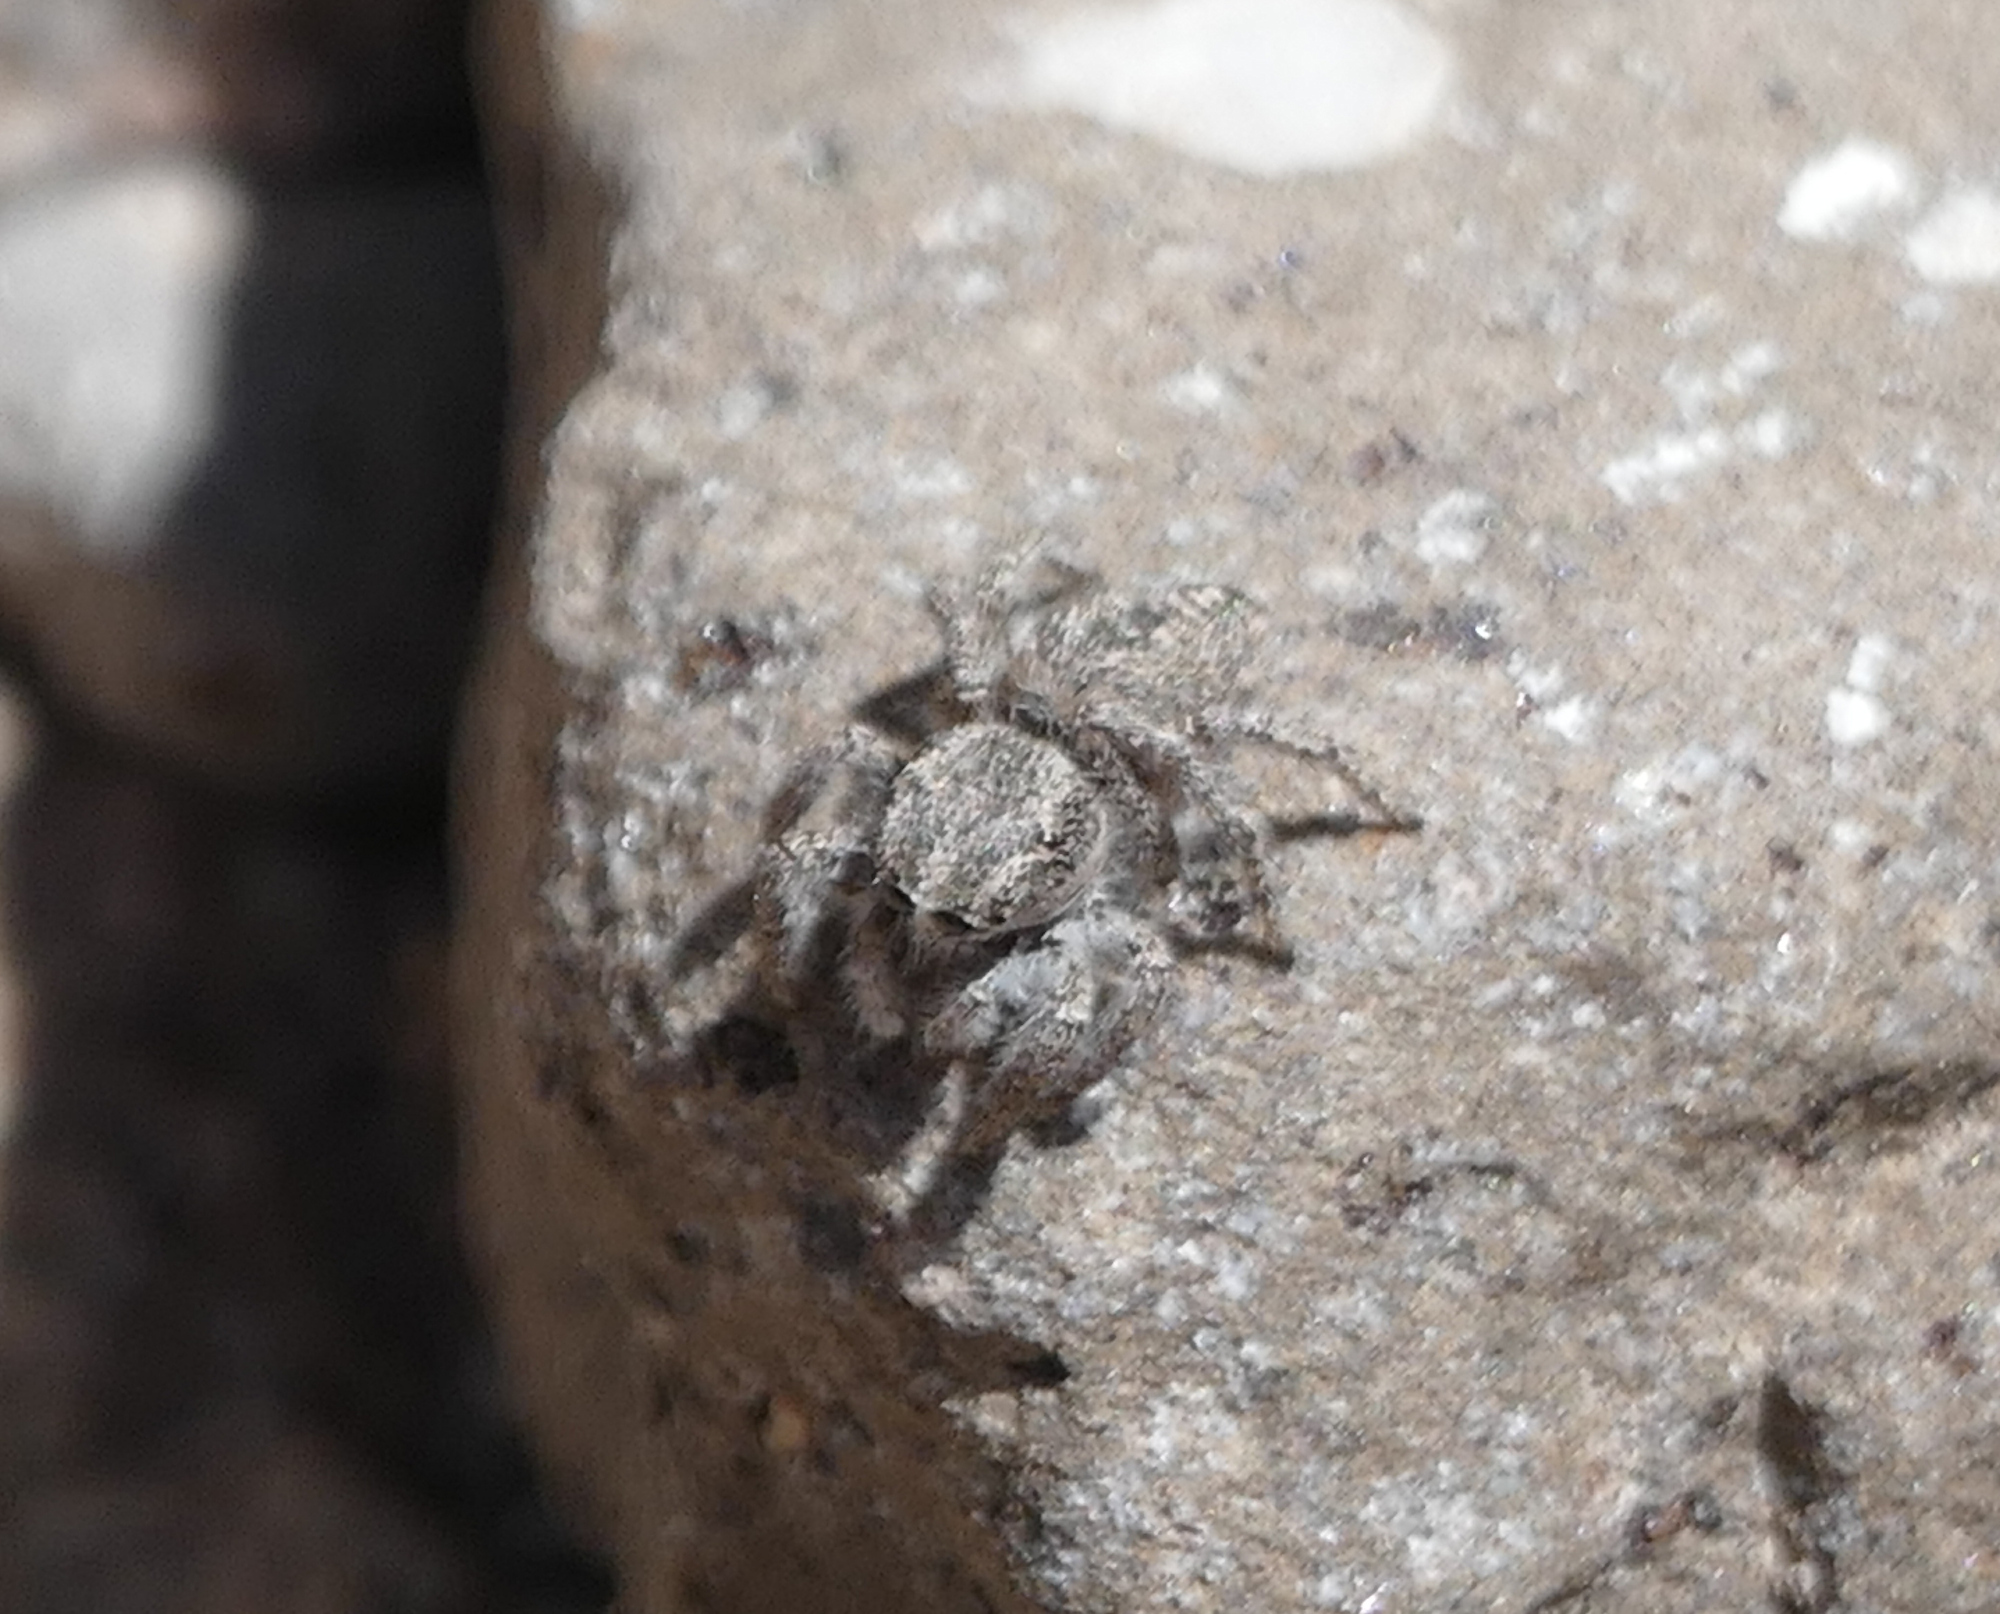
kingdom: Animalia
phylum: Arthropoda
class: Arachnida
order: Araneae
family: Salticidae
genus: Habronattus
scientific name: Habronattus conjunctus
